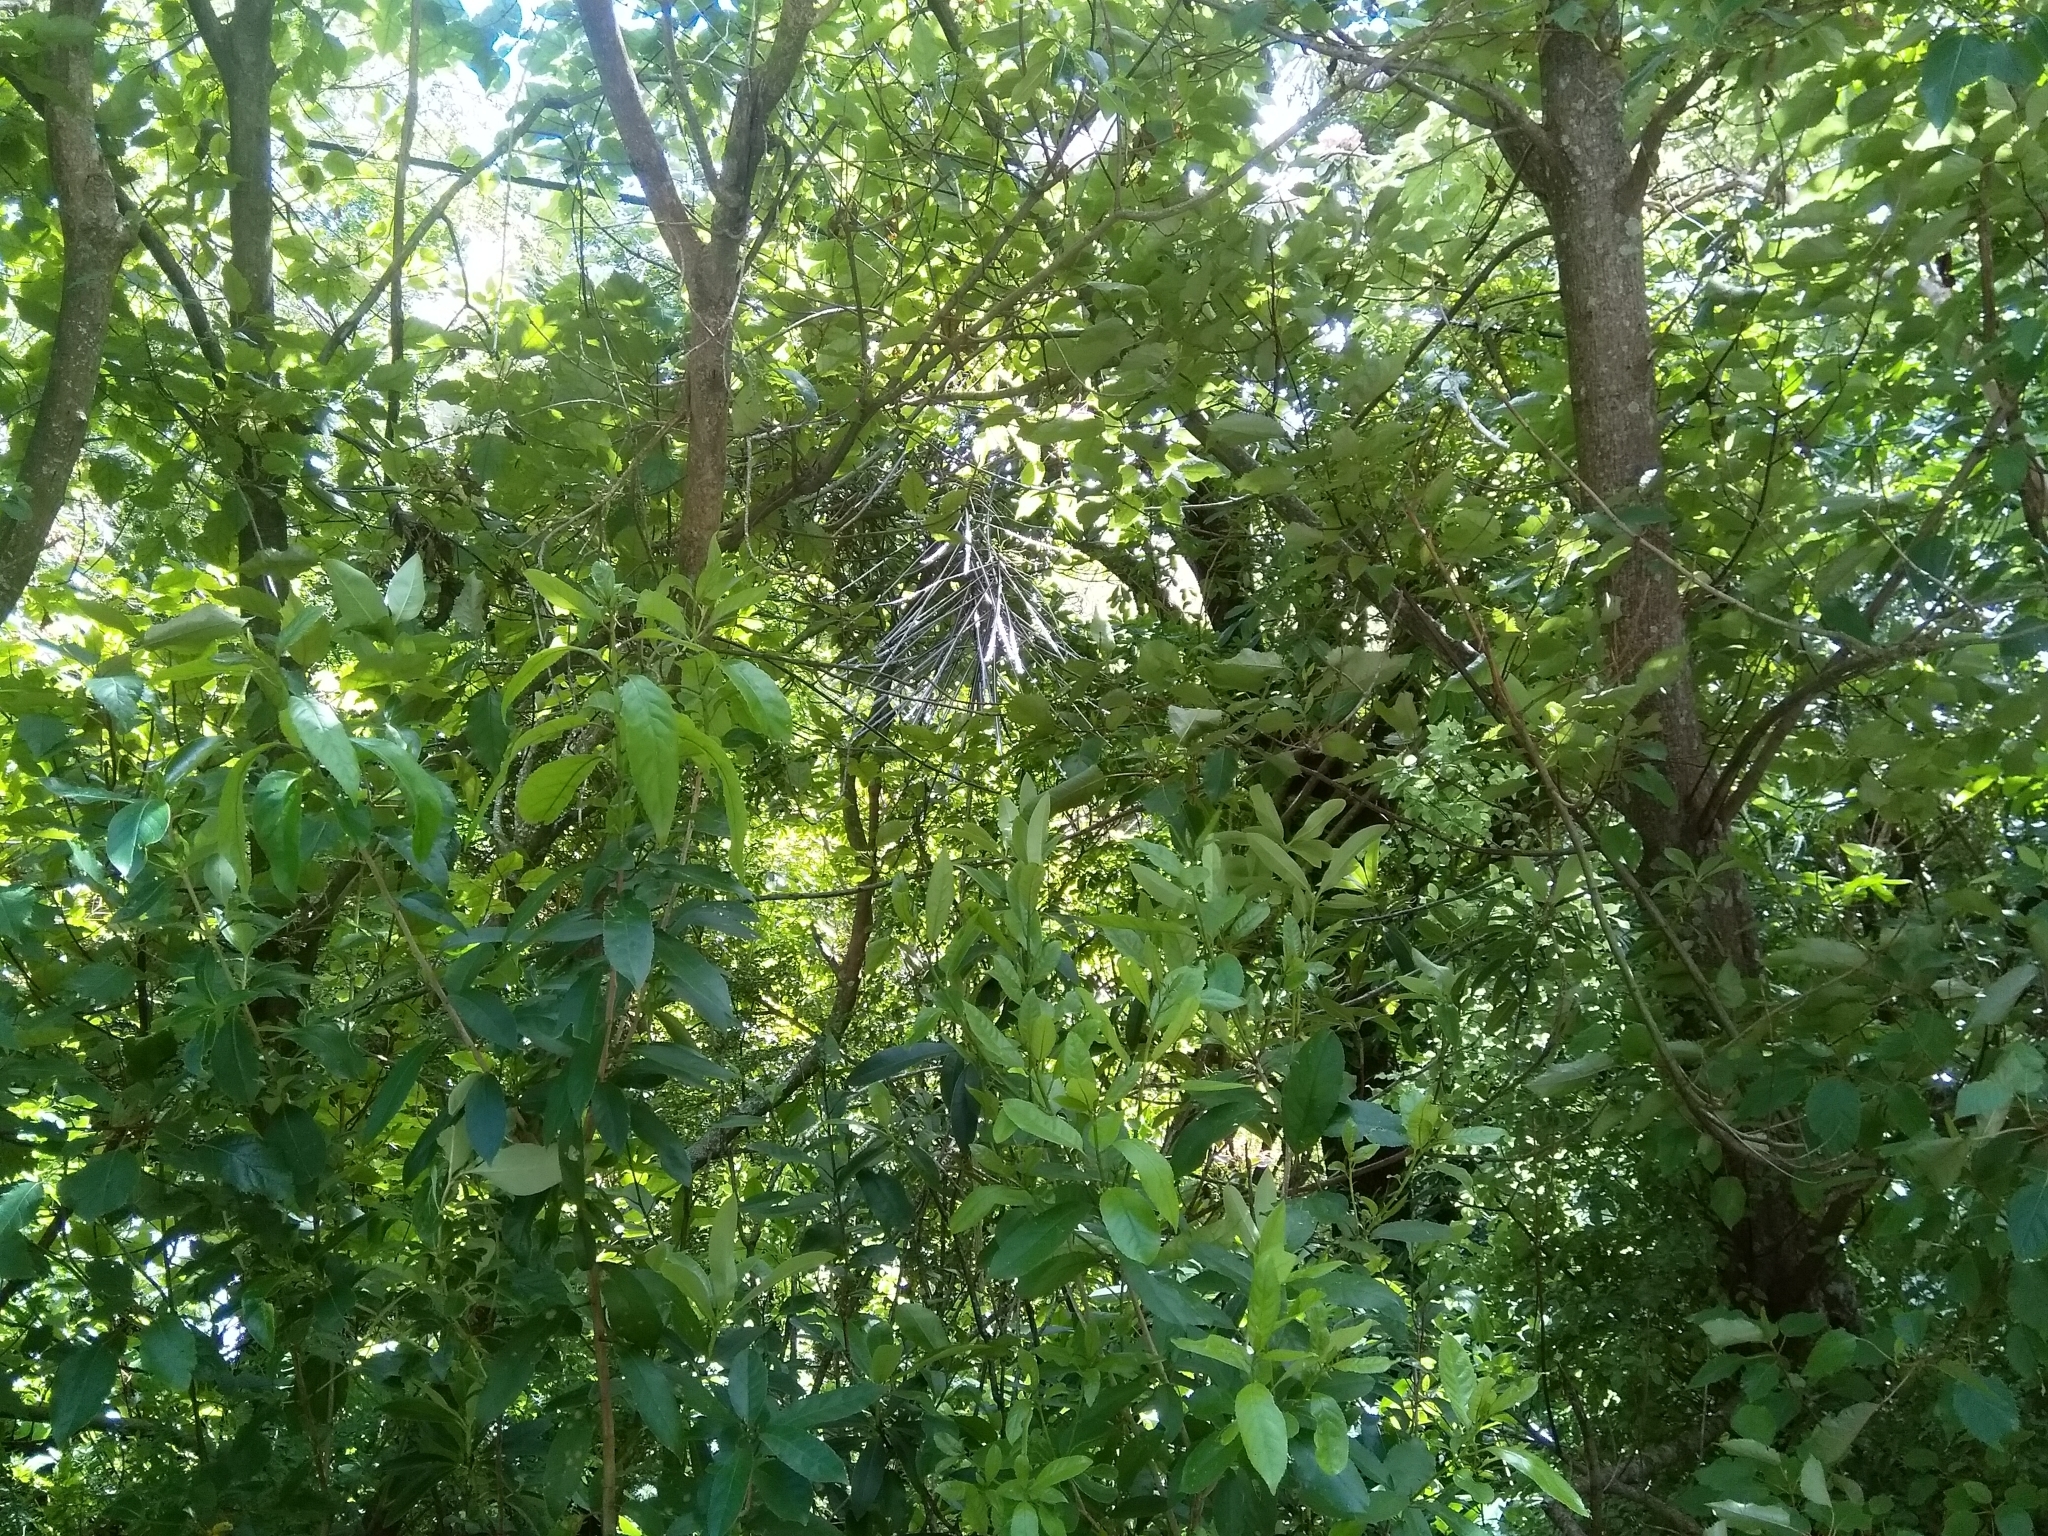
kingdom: Plantae
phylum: Tracheophyta
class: Magnoliopsida
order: Apiales
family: Araliaceae
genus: Pseudopanax
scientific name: Pseudopanax
